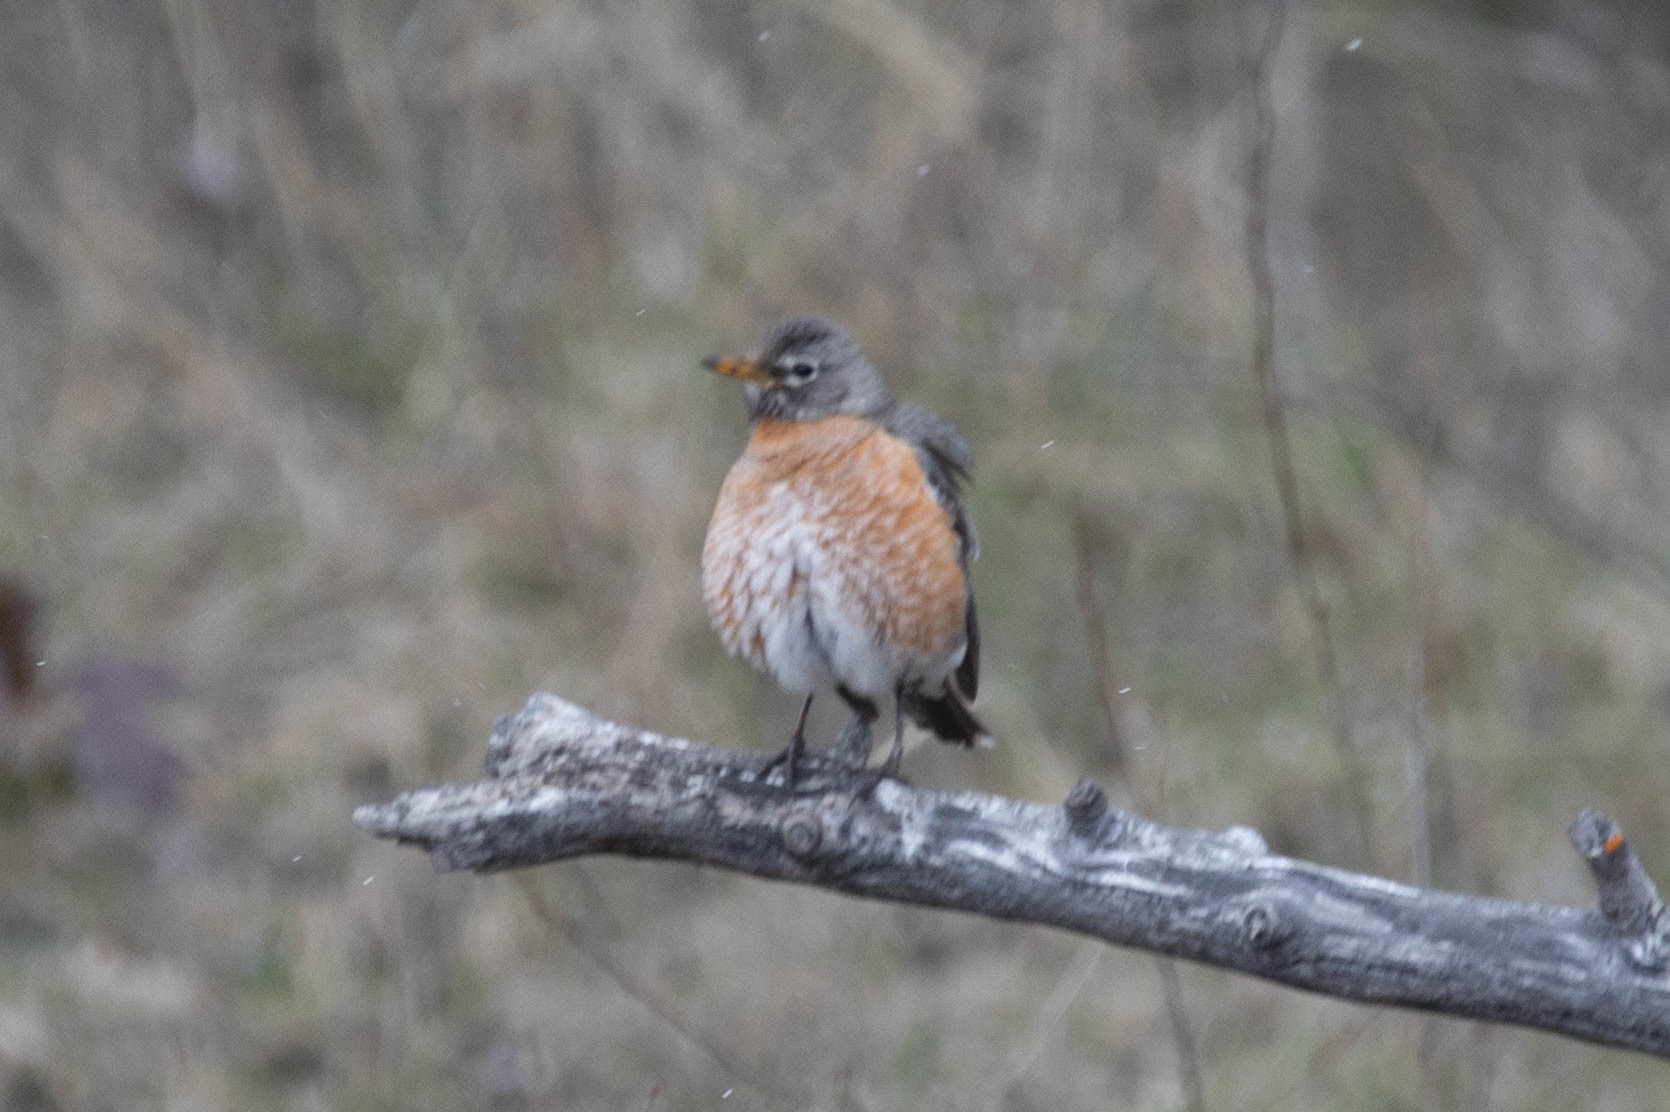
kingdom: Animalia
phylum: Chordata
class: Aves
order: Passeriformes
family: Turdidae
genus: Turdus
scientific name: Turdus migratorius
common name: American robin
